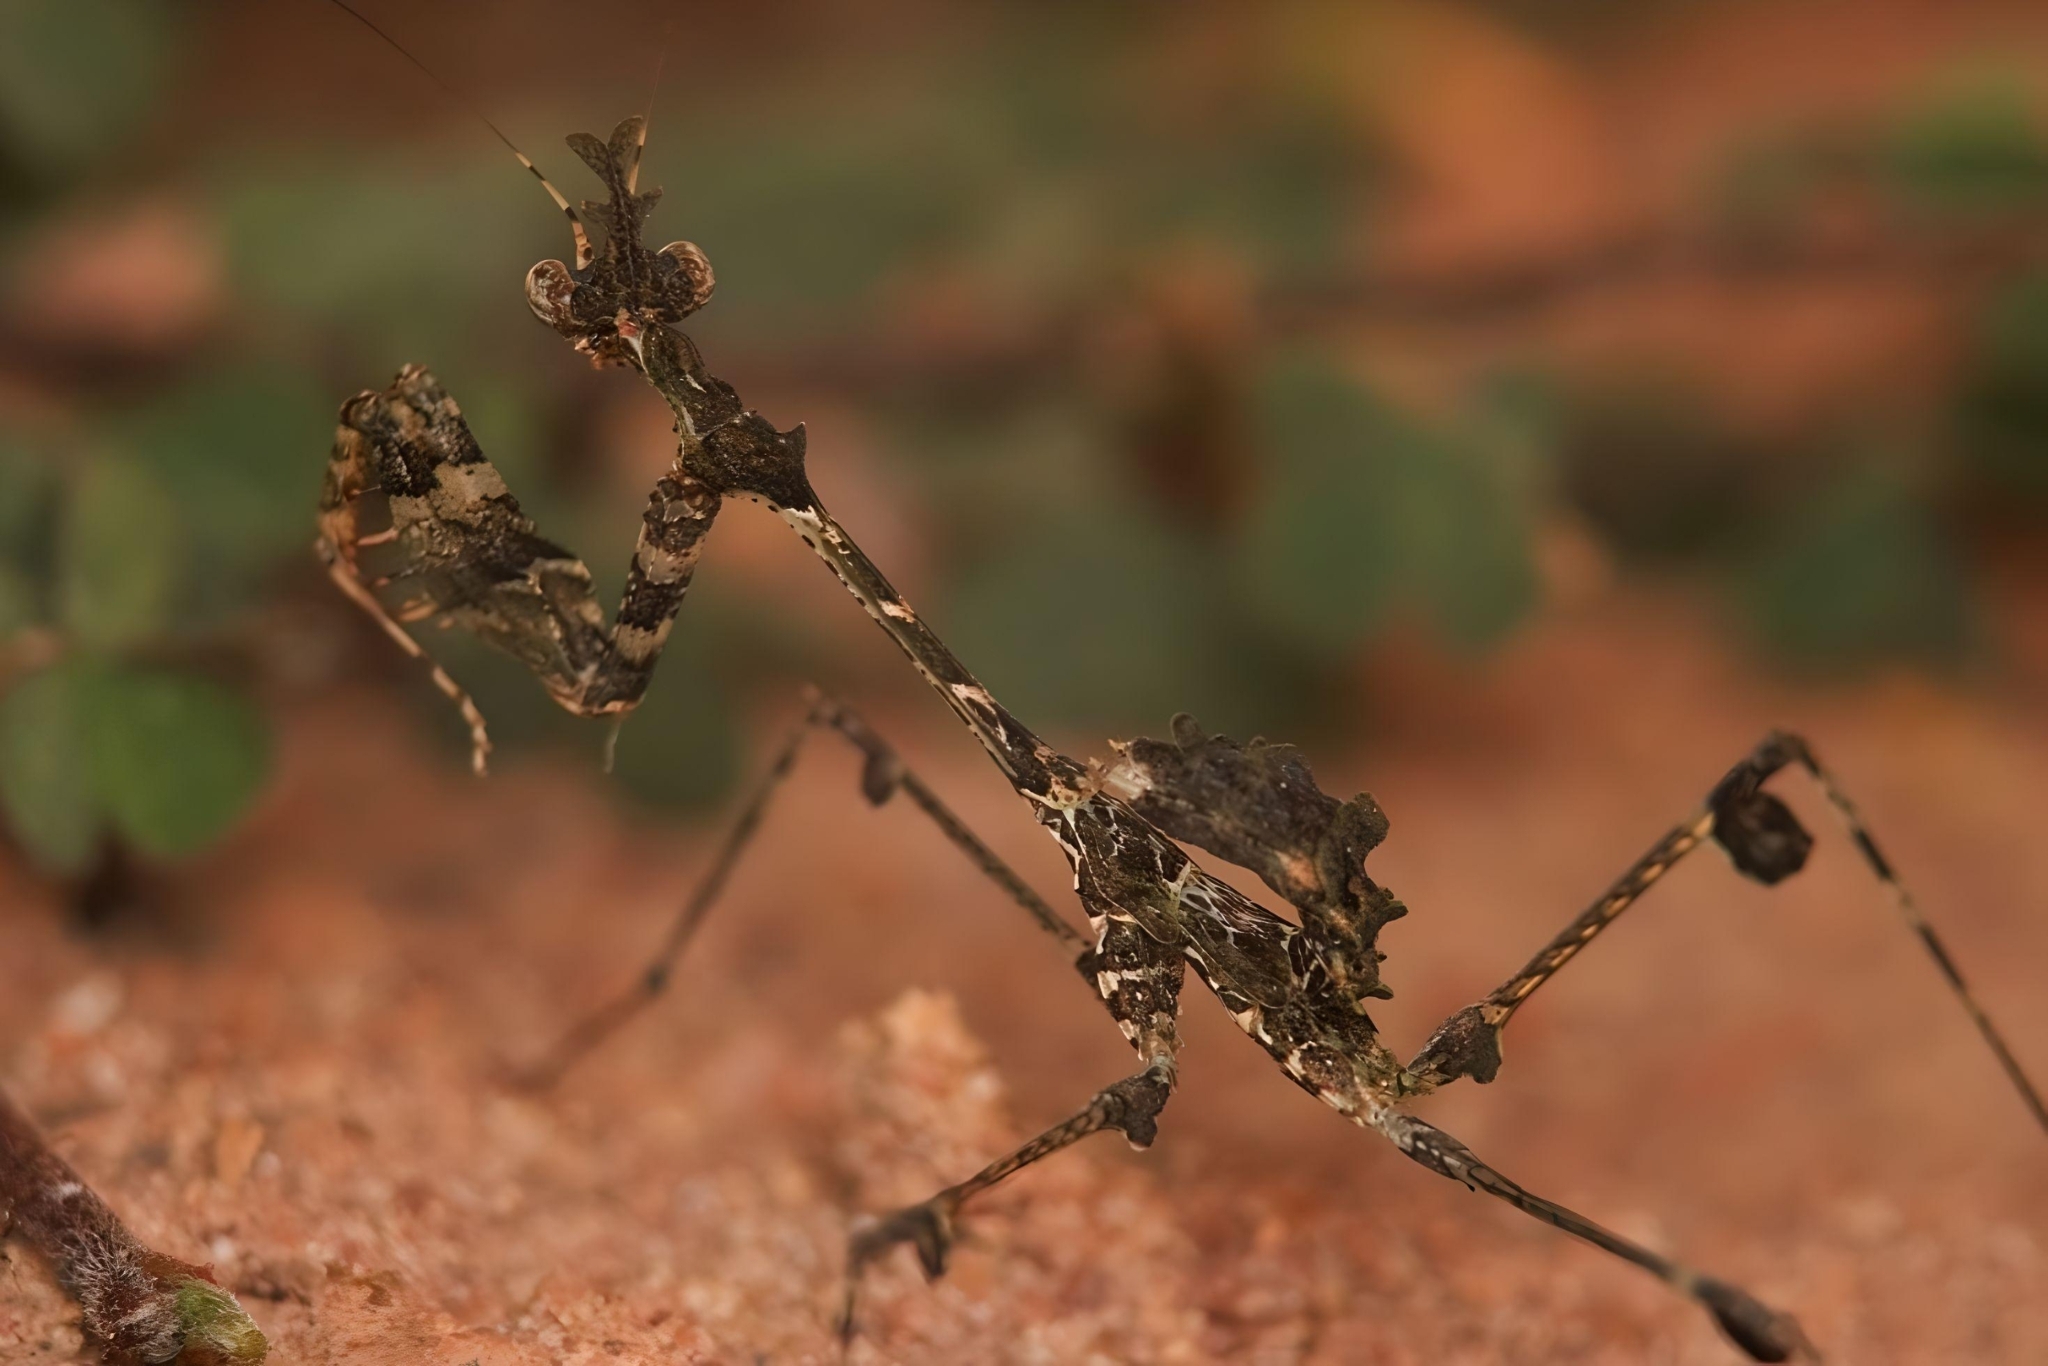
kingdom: Animalia
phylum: Arthropoda
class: Insecta
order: Mantodea
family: Hymenopodidae
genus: Sibylla
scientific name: Sibylla pretiosa
